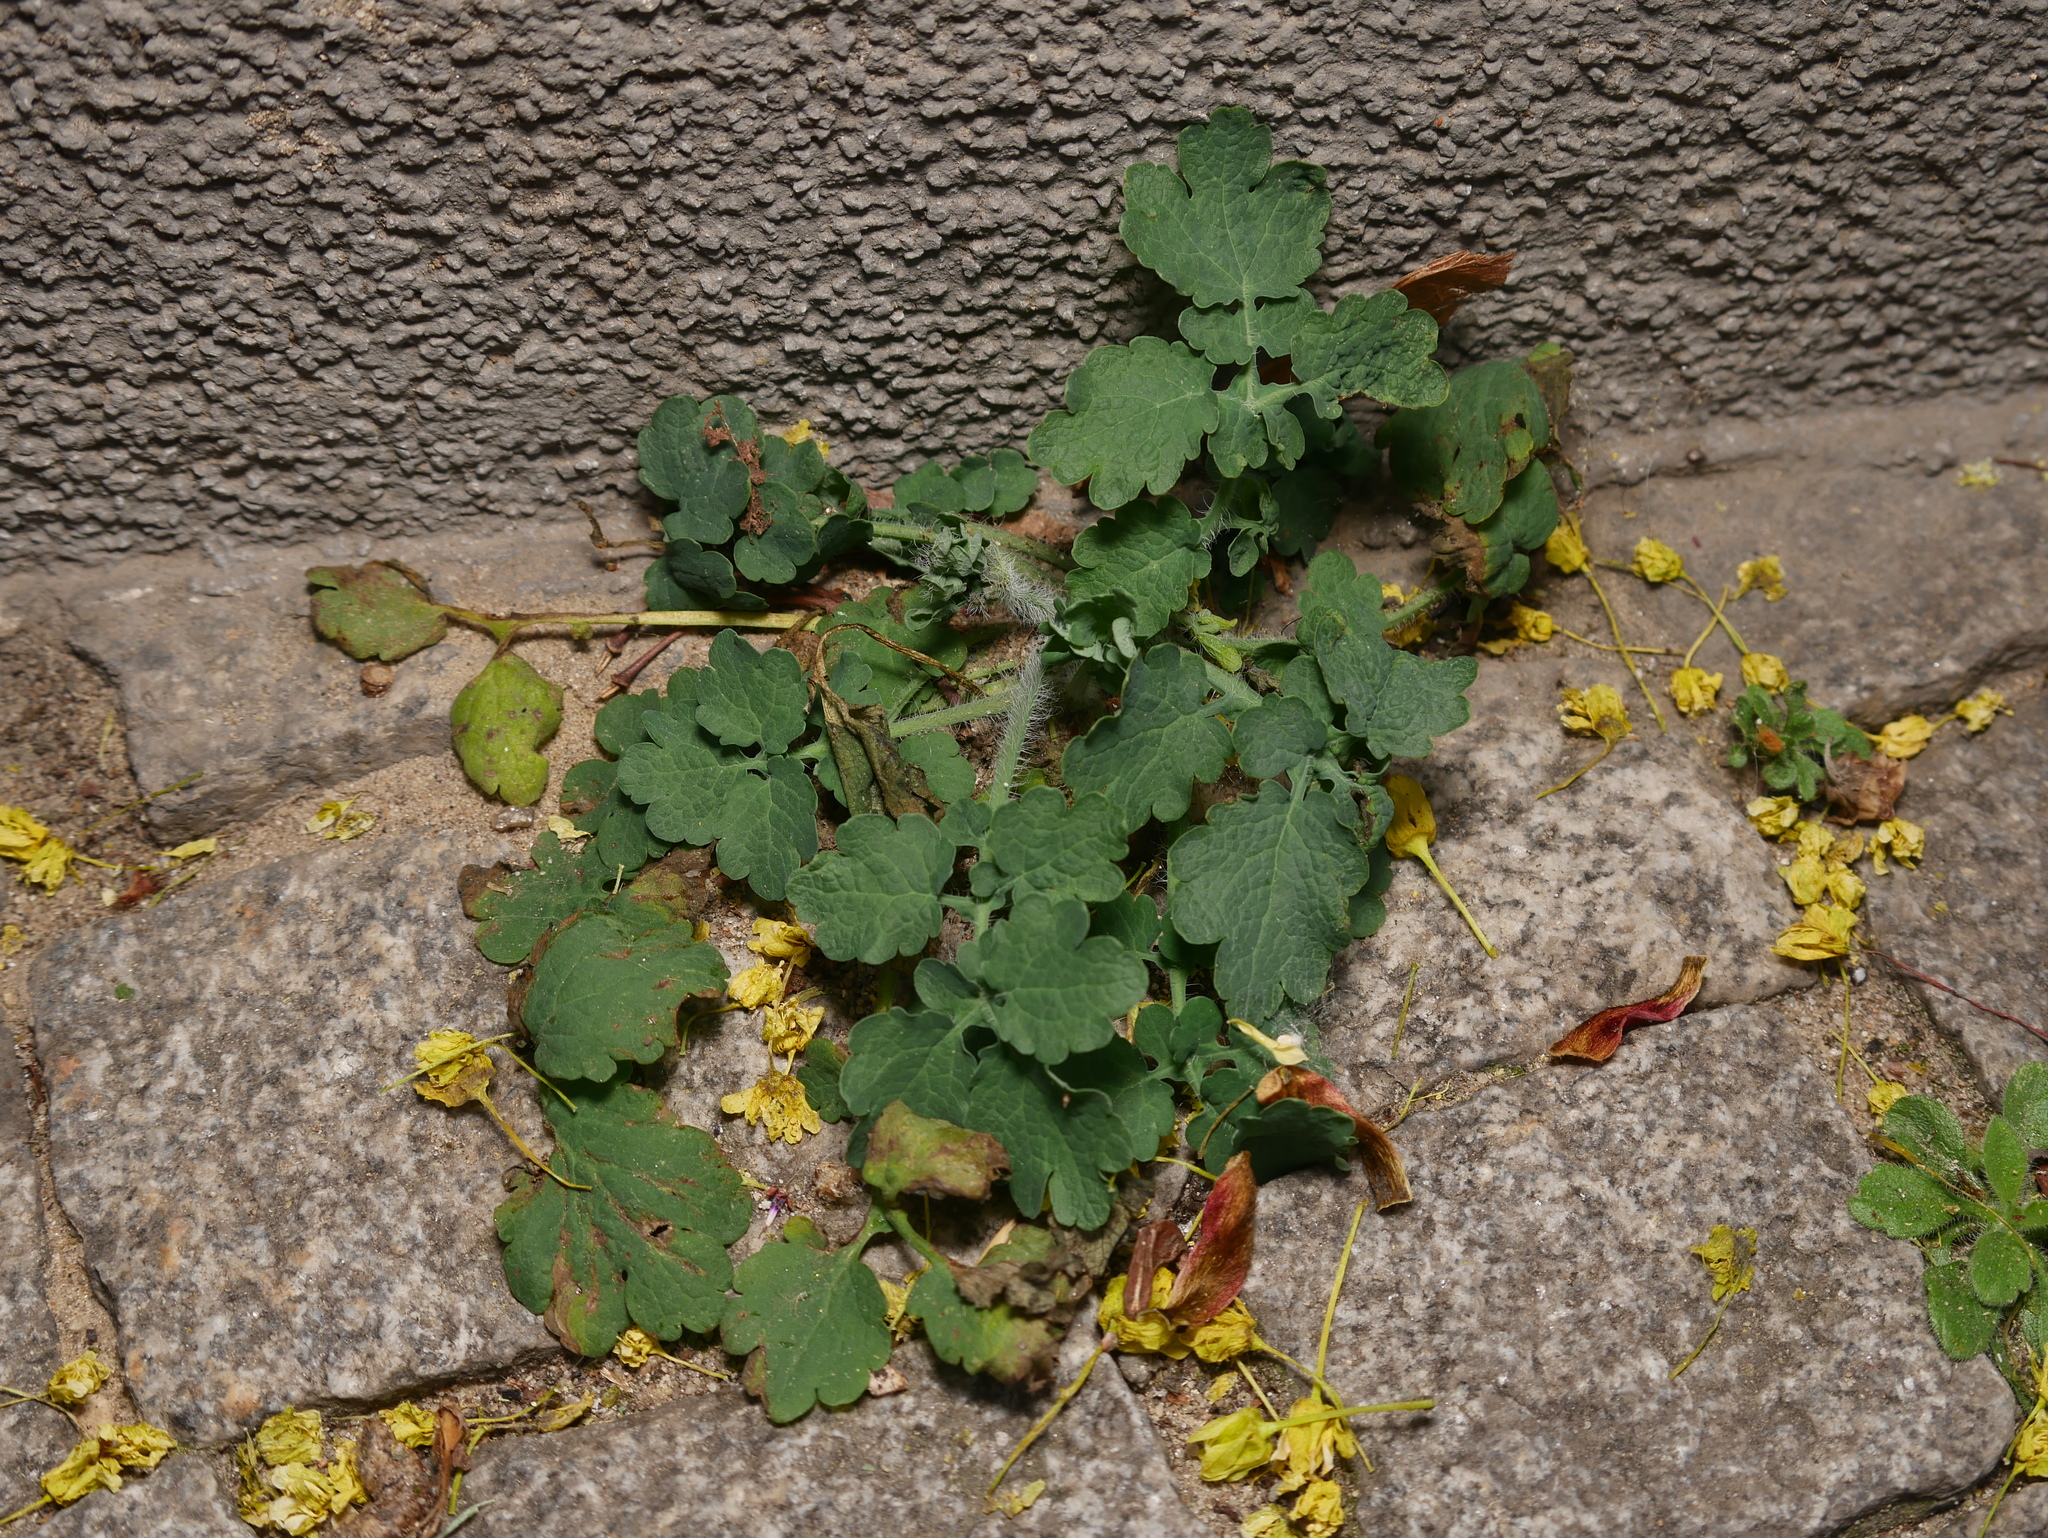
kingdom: Plantae
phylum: Tracheophyta
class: Magnoliopsida
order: Ranunculales
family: Papaveraceae
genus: Chelidonium
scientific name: Chelidonium majus
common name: Greater celandine
